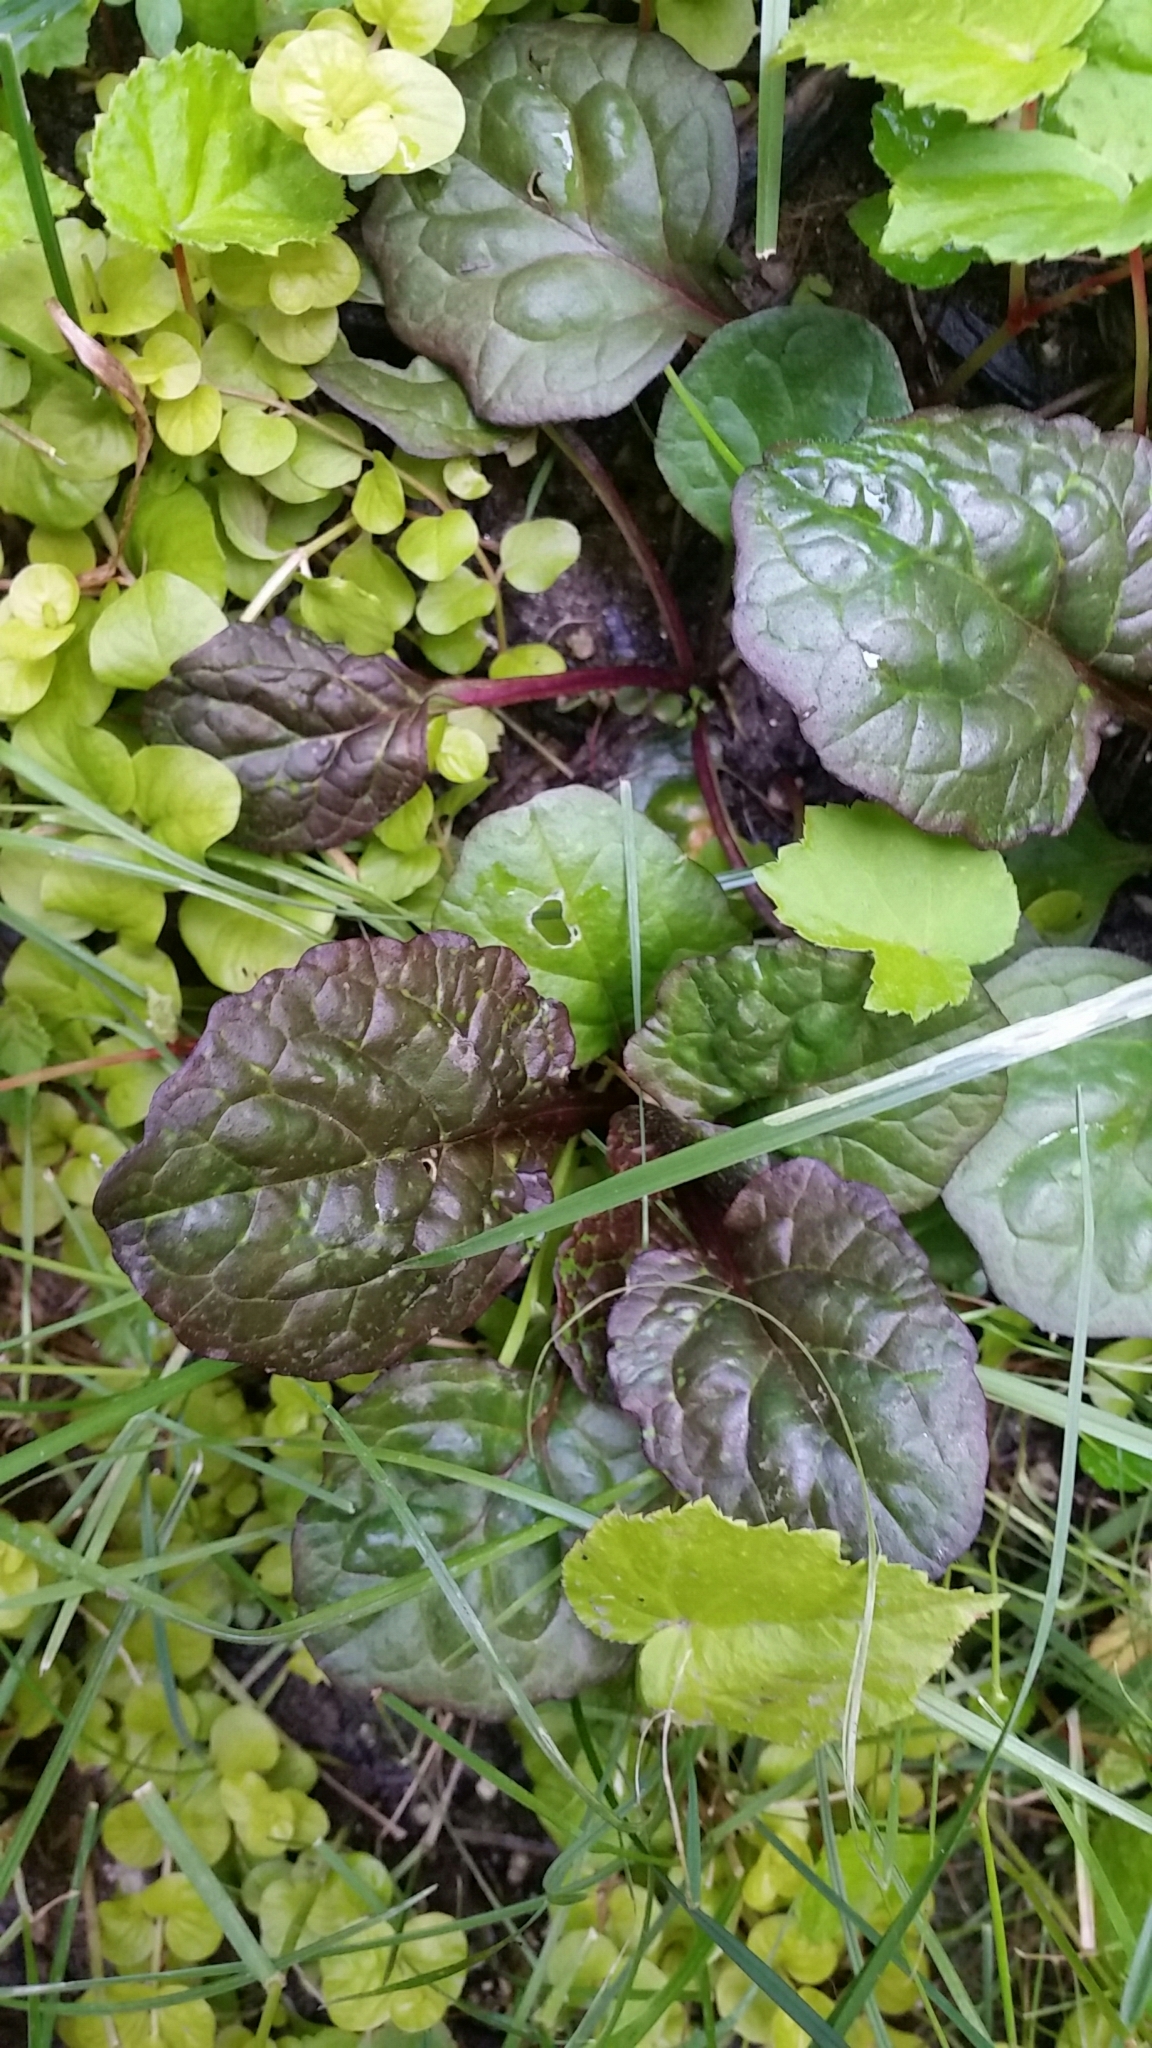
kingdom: Plantae
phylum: Tracheophyta
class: Magnoliopsida
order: Lamiales
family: Lamiaceae
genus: Ajuga
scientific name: Ajuga reptans
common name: Bugle
